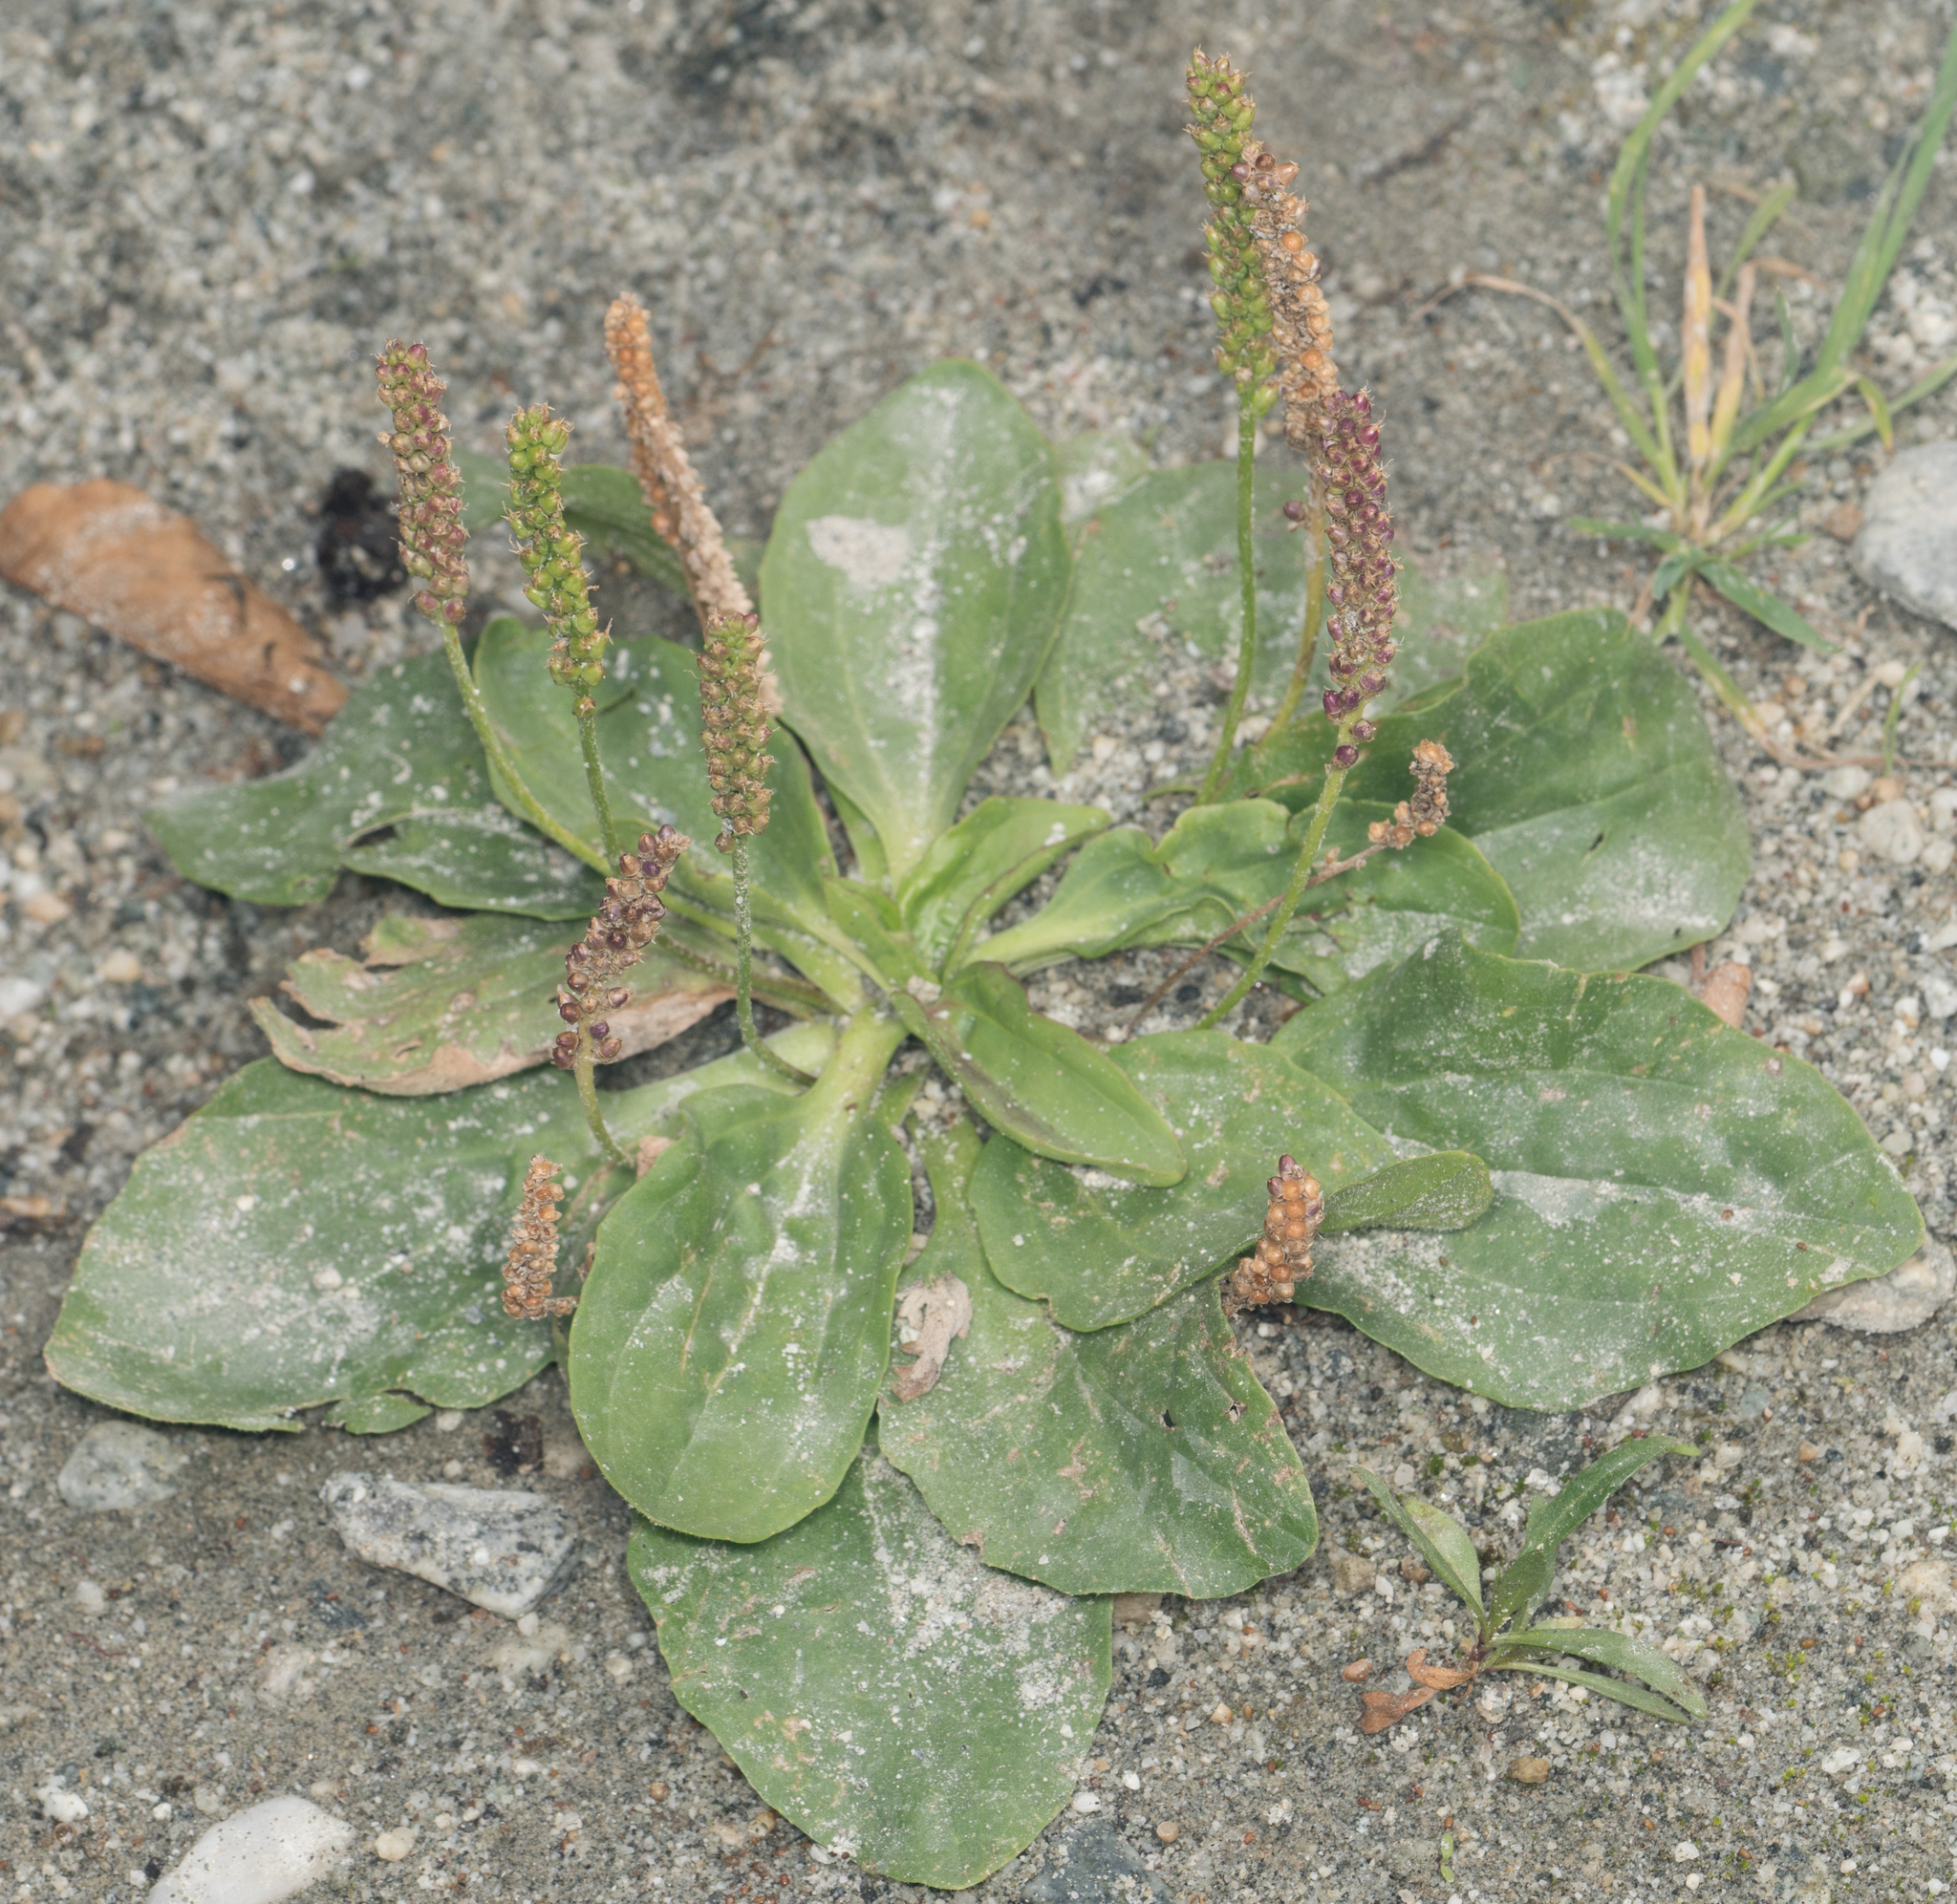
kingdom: Plantae
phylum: Tracheophyta
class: Magnoliopsida
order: Lamiales
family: Plantaginaceae
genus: Plantago
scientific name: Plantago major
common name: Common plantain
